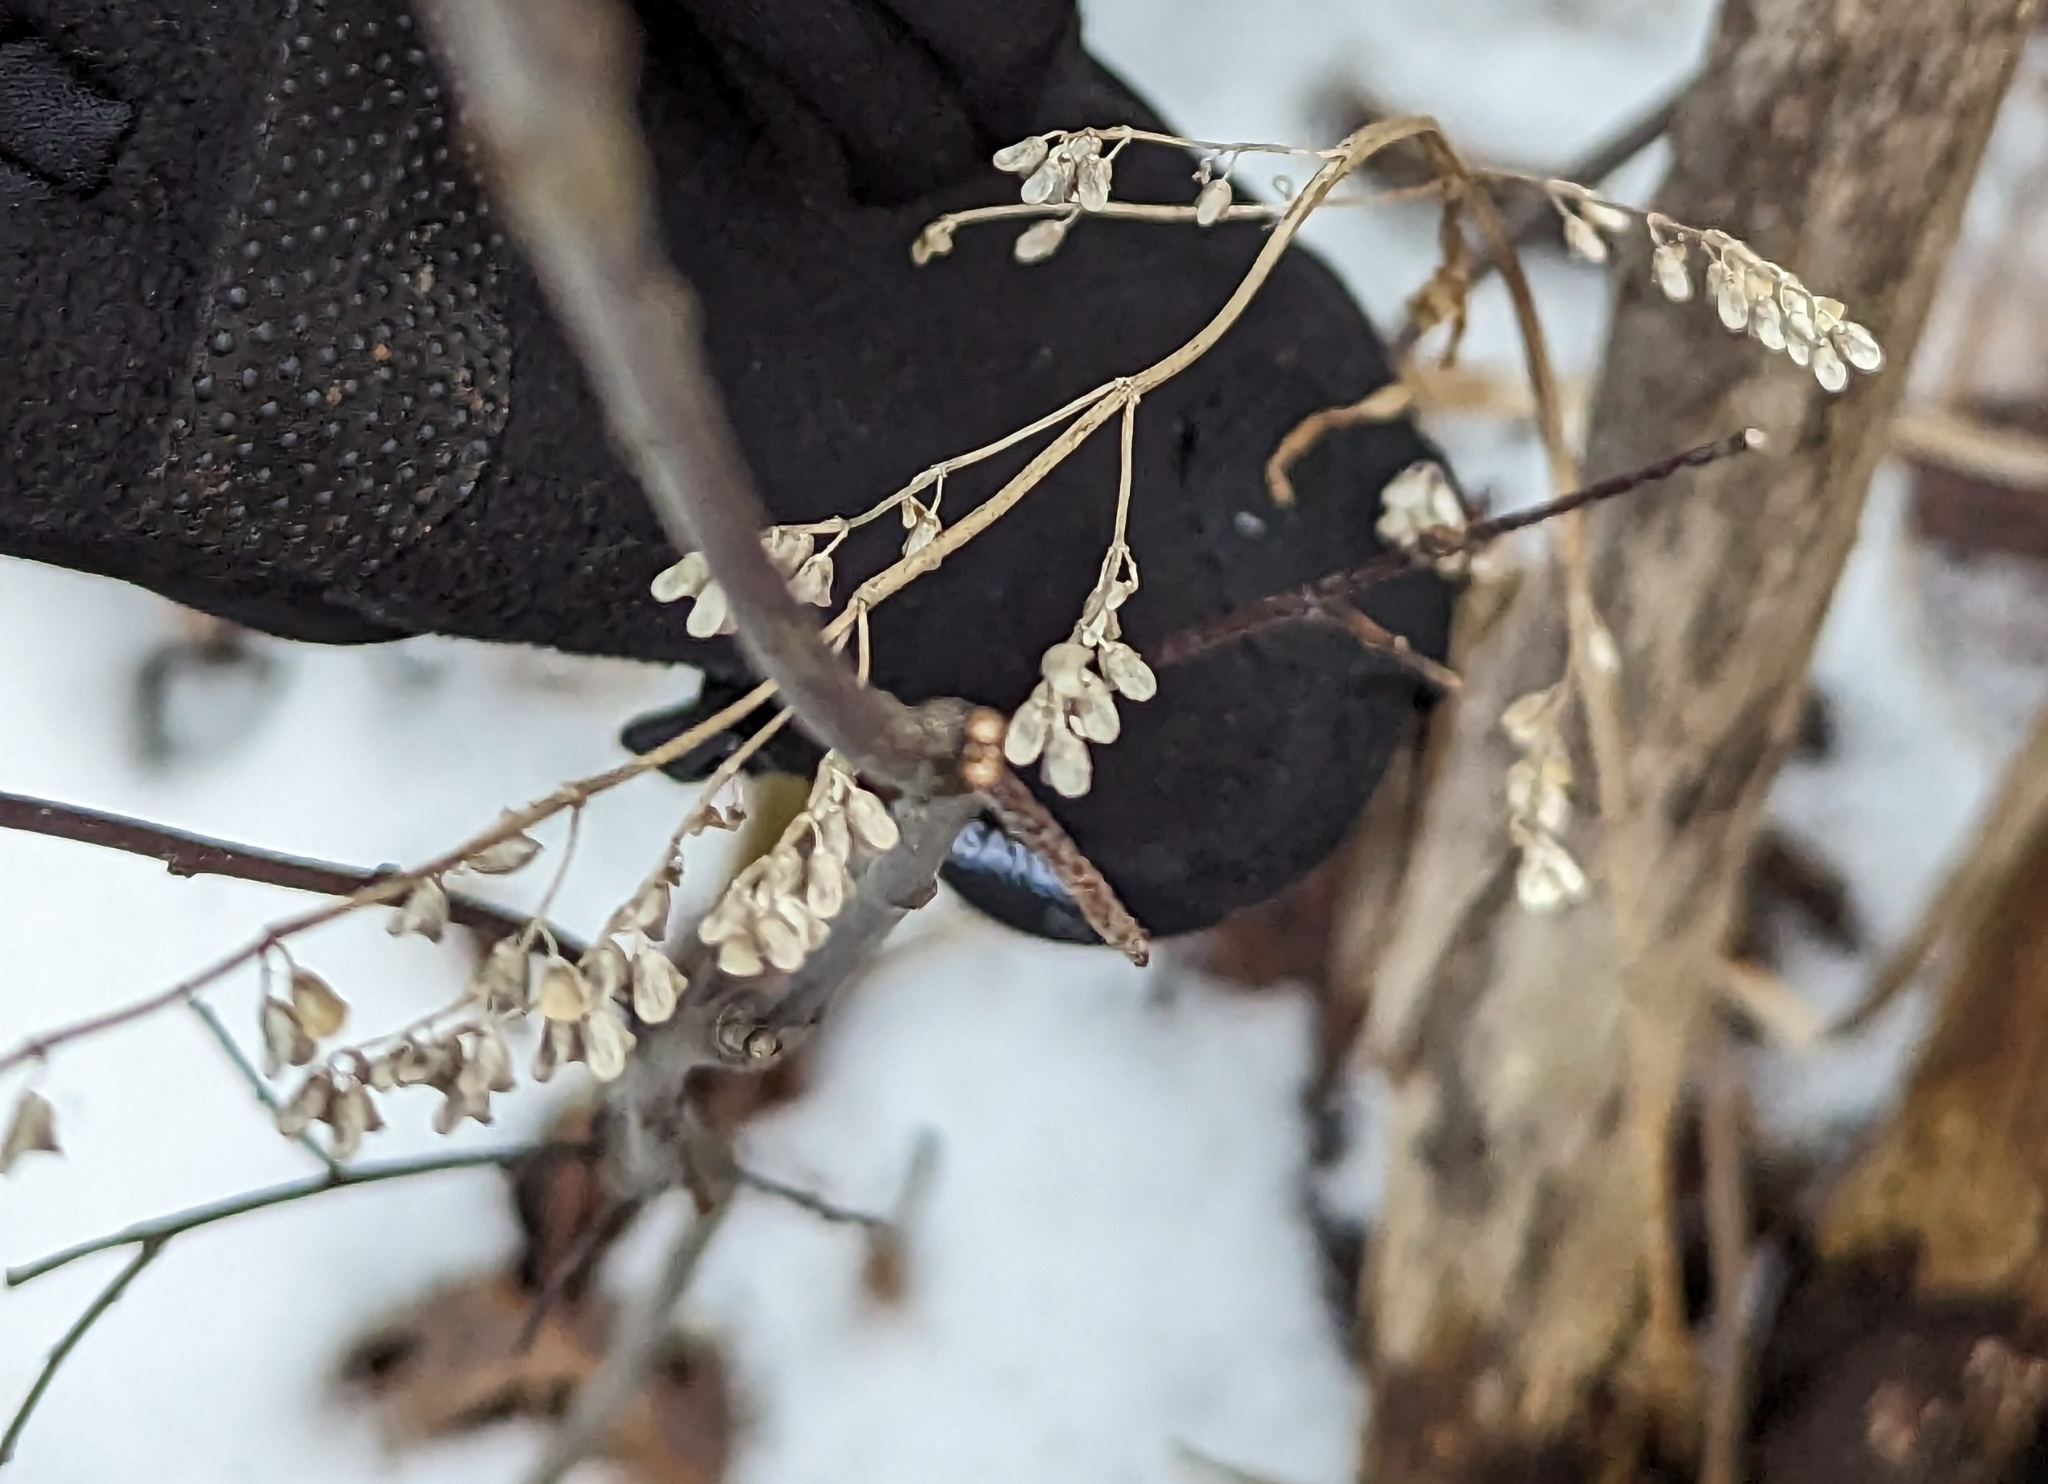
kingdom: Plantae
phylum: Tracheophyta
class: Magnoliopsida
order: Lamiales
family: Lamiaceae
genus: Scutellaria
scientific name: Scutellaria lateriflora
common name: Blue skullcap
